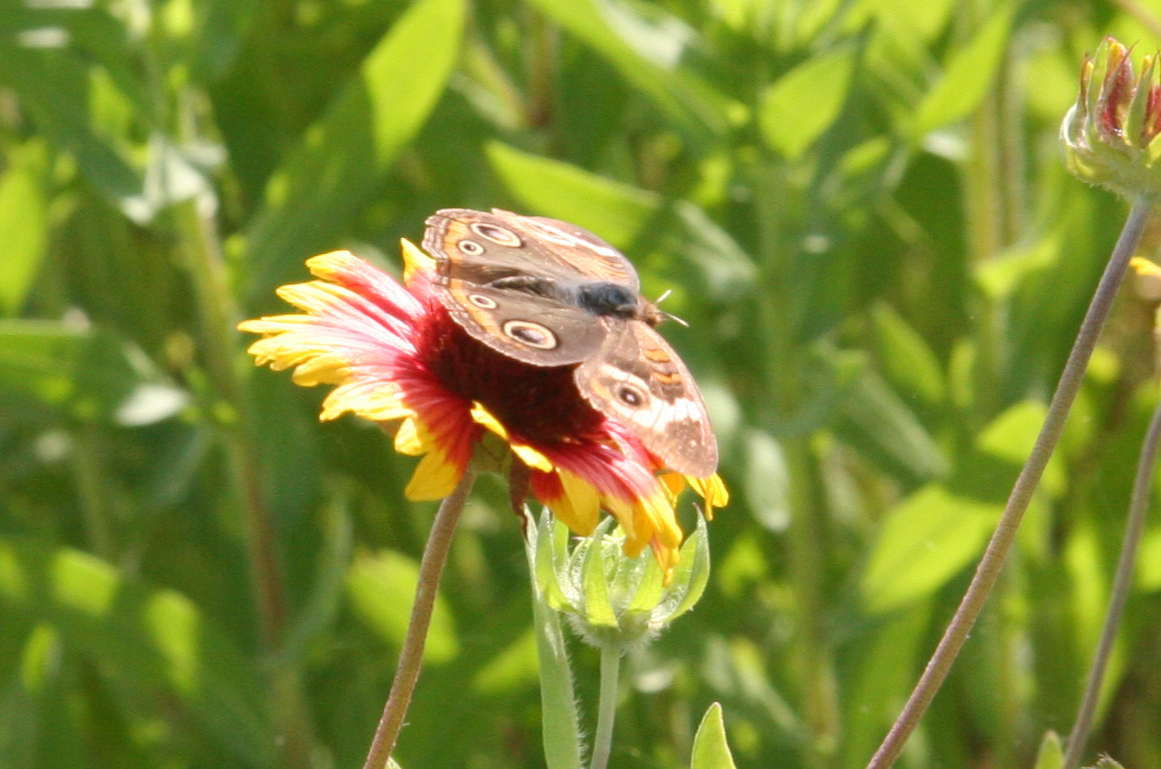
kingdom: Animalia
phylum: Arthropoda
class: Insecta
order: Lepidoptera
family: Nymphalidae
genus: Junonia
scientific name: Junonia coenia
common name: Common buckeye
